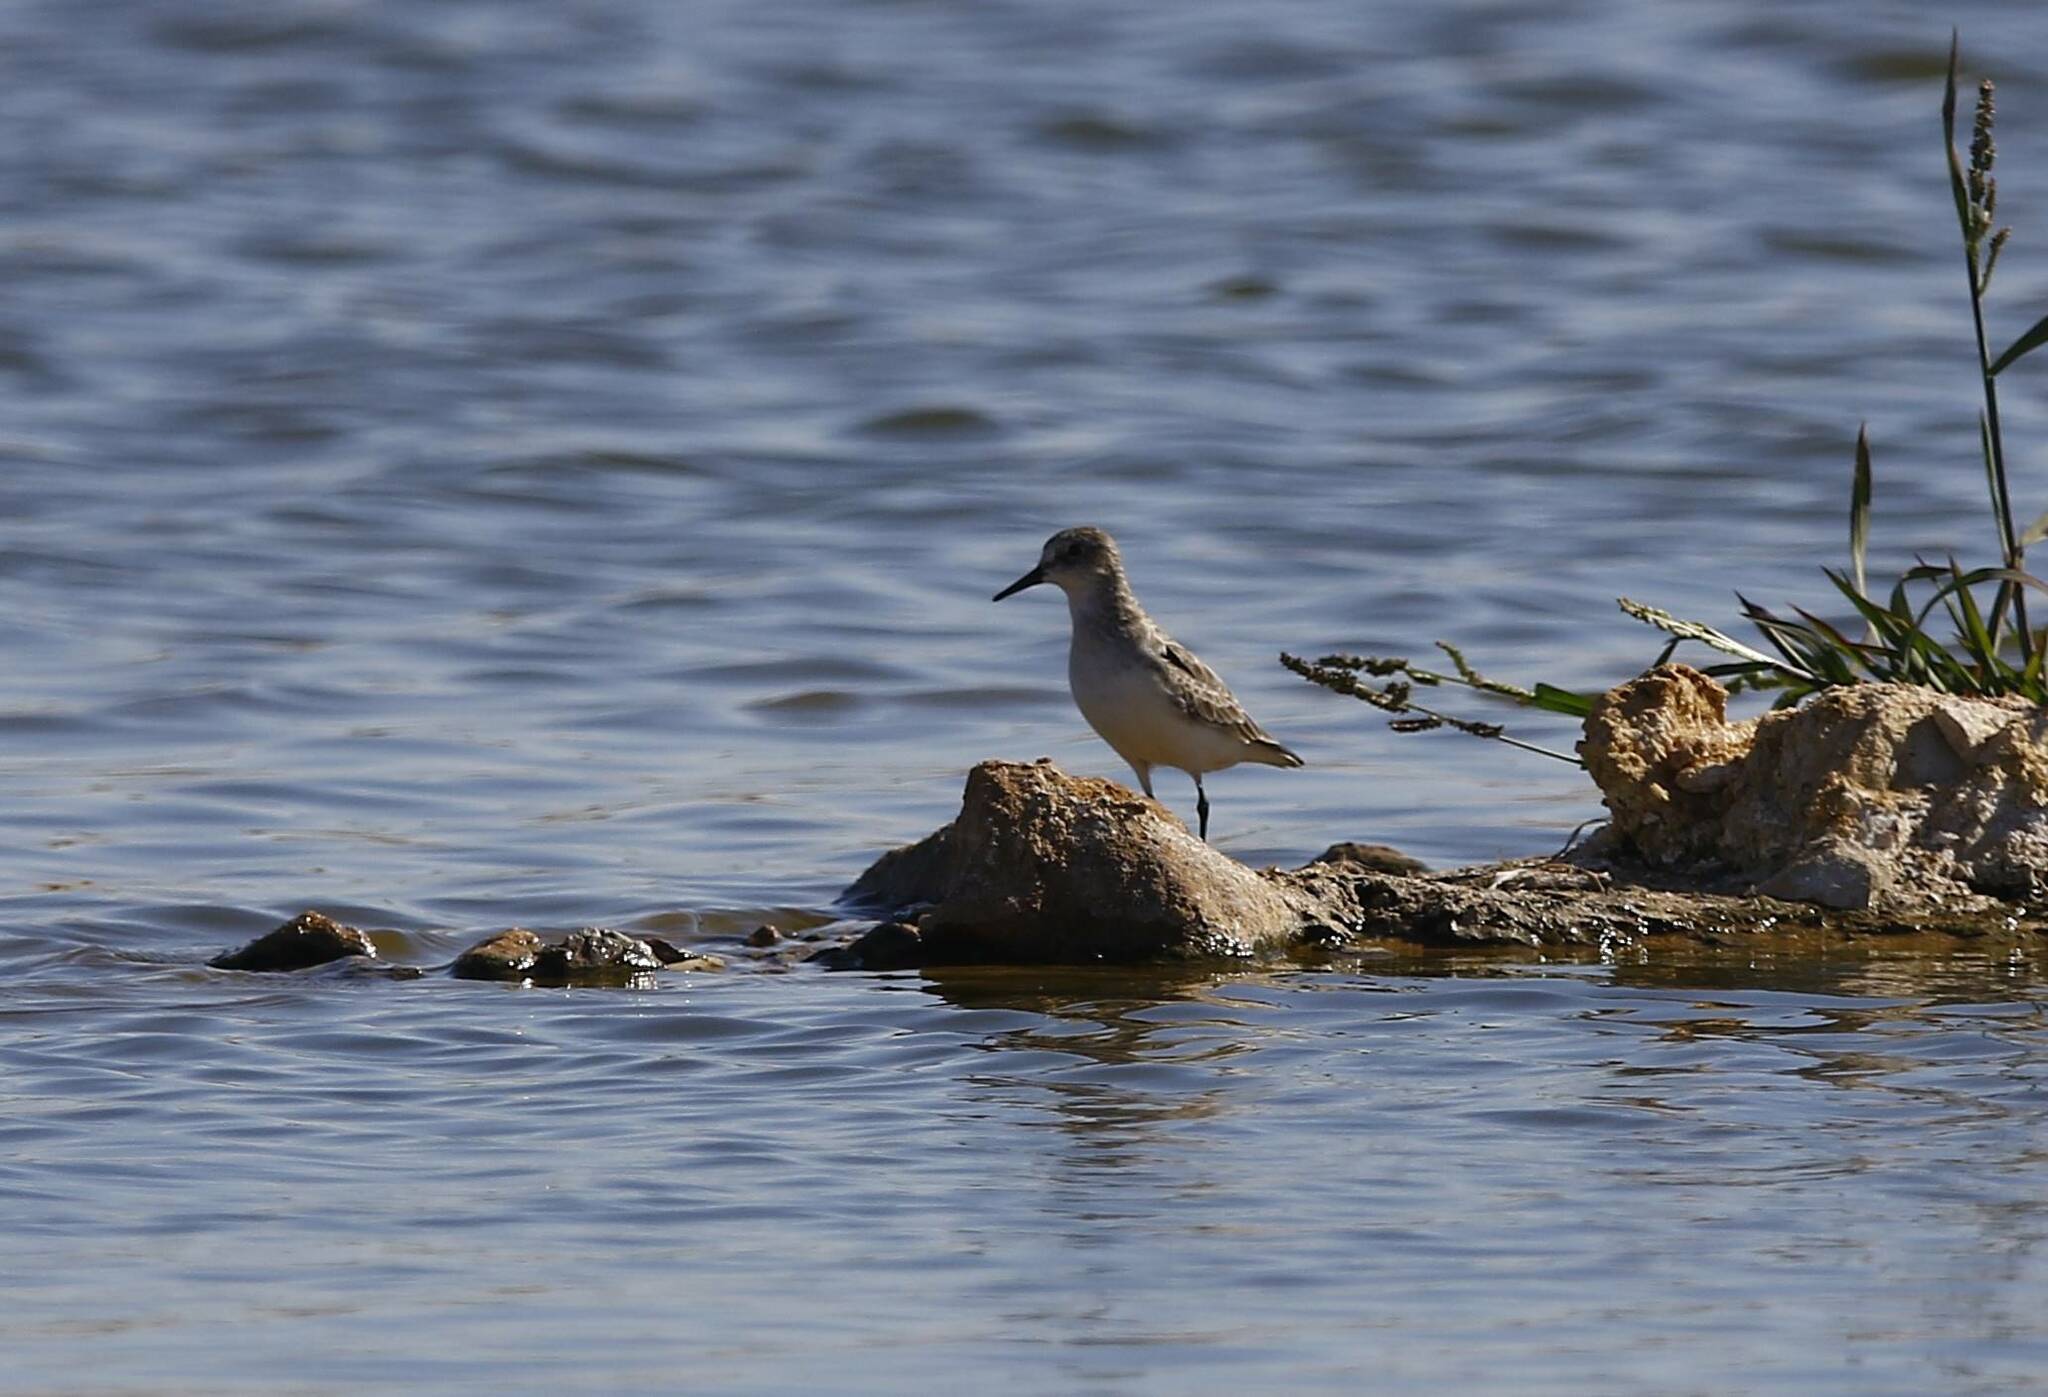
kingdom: Animalia
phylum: Chordata
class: Aves
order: Charadriiformes
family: Scolopacidae
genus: Calidris
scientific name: Calidris minuta
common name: Little stint
